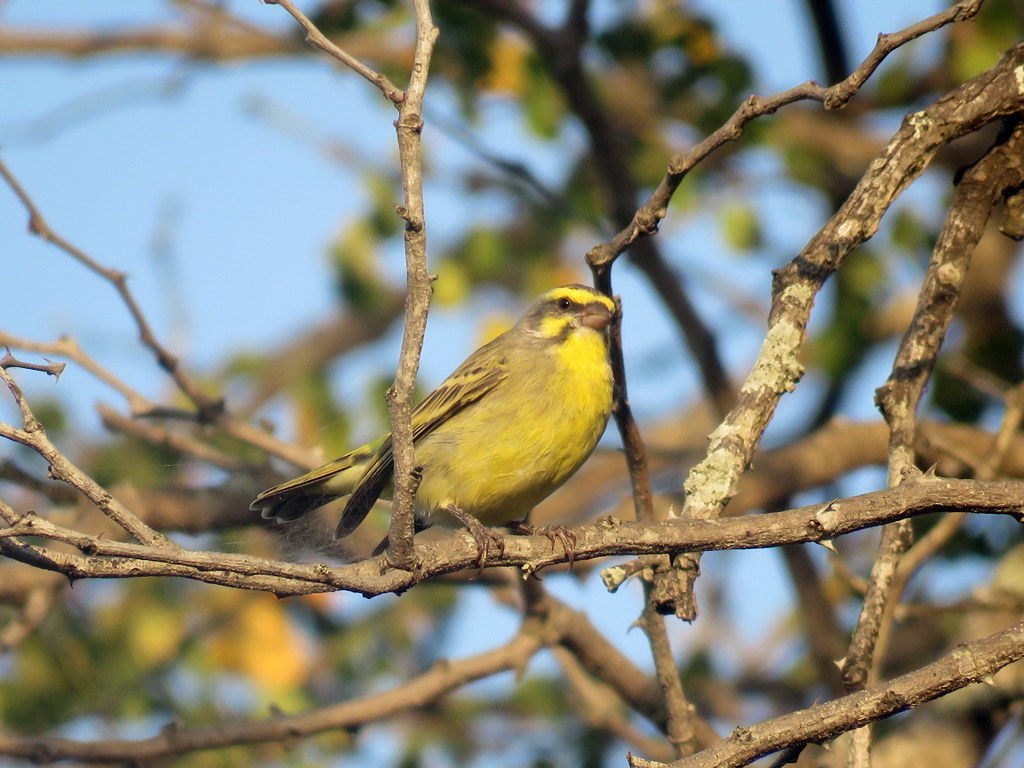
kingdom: Animalia
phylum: Chordata
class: Aves
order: Passeriformes
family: Fringillidae
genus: Crithagra
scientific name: Crithagra mozambica
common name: Yellow-fronted canary
